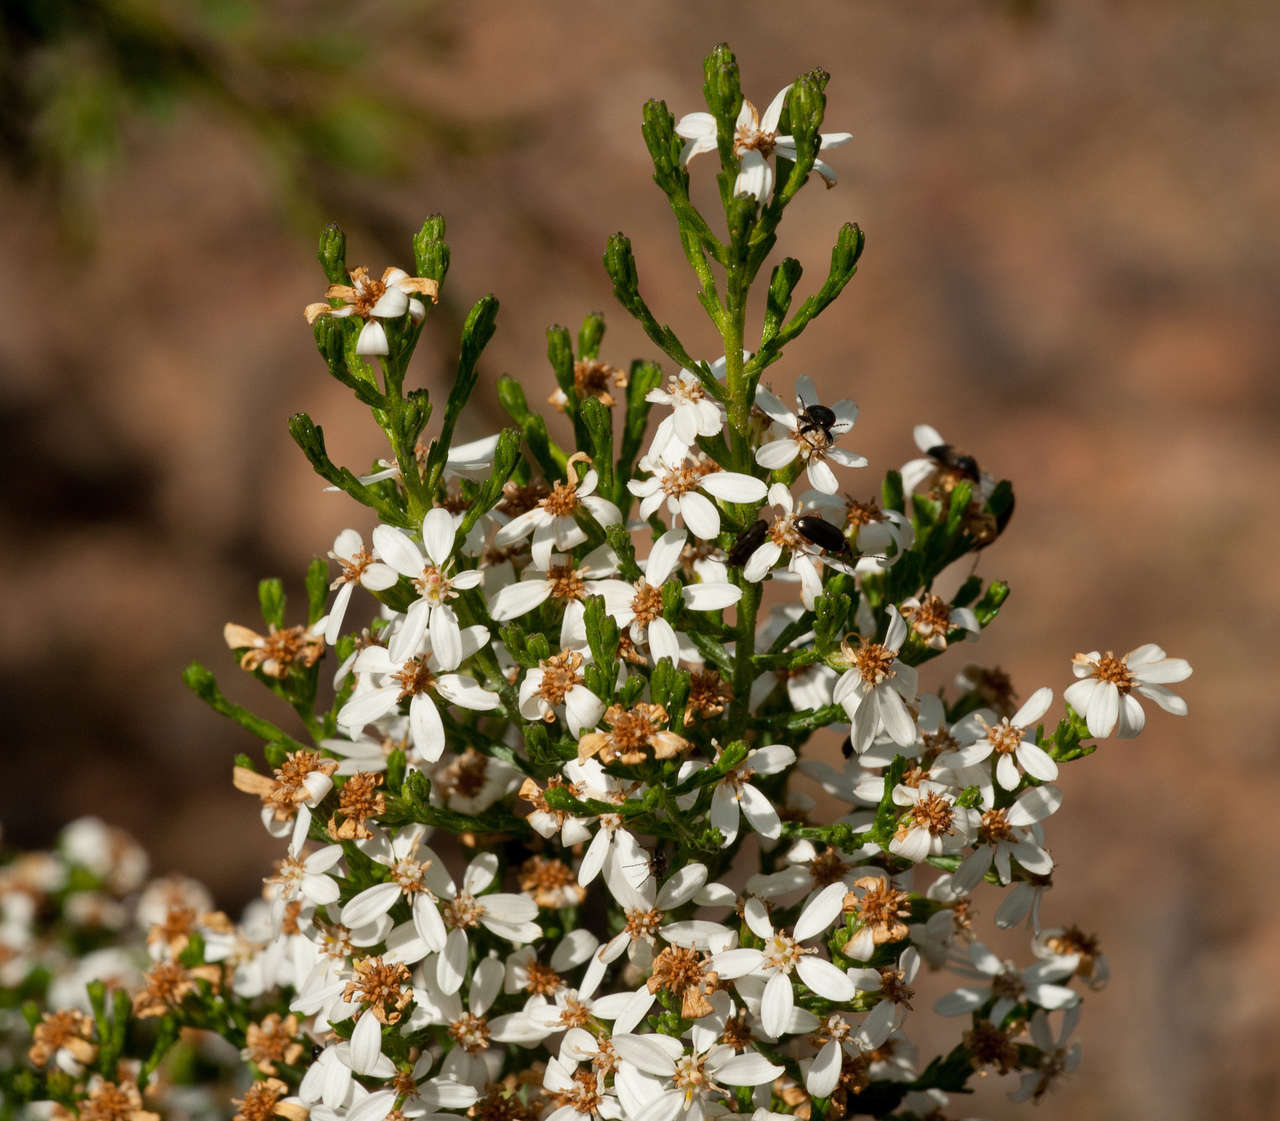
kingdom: Plantae
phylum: Tracheophyta
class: Magnoliopsida
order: Asterales
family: Asteraceae
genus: Olearia
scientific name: Olearia teretifolia
